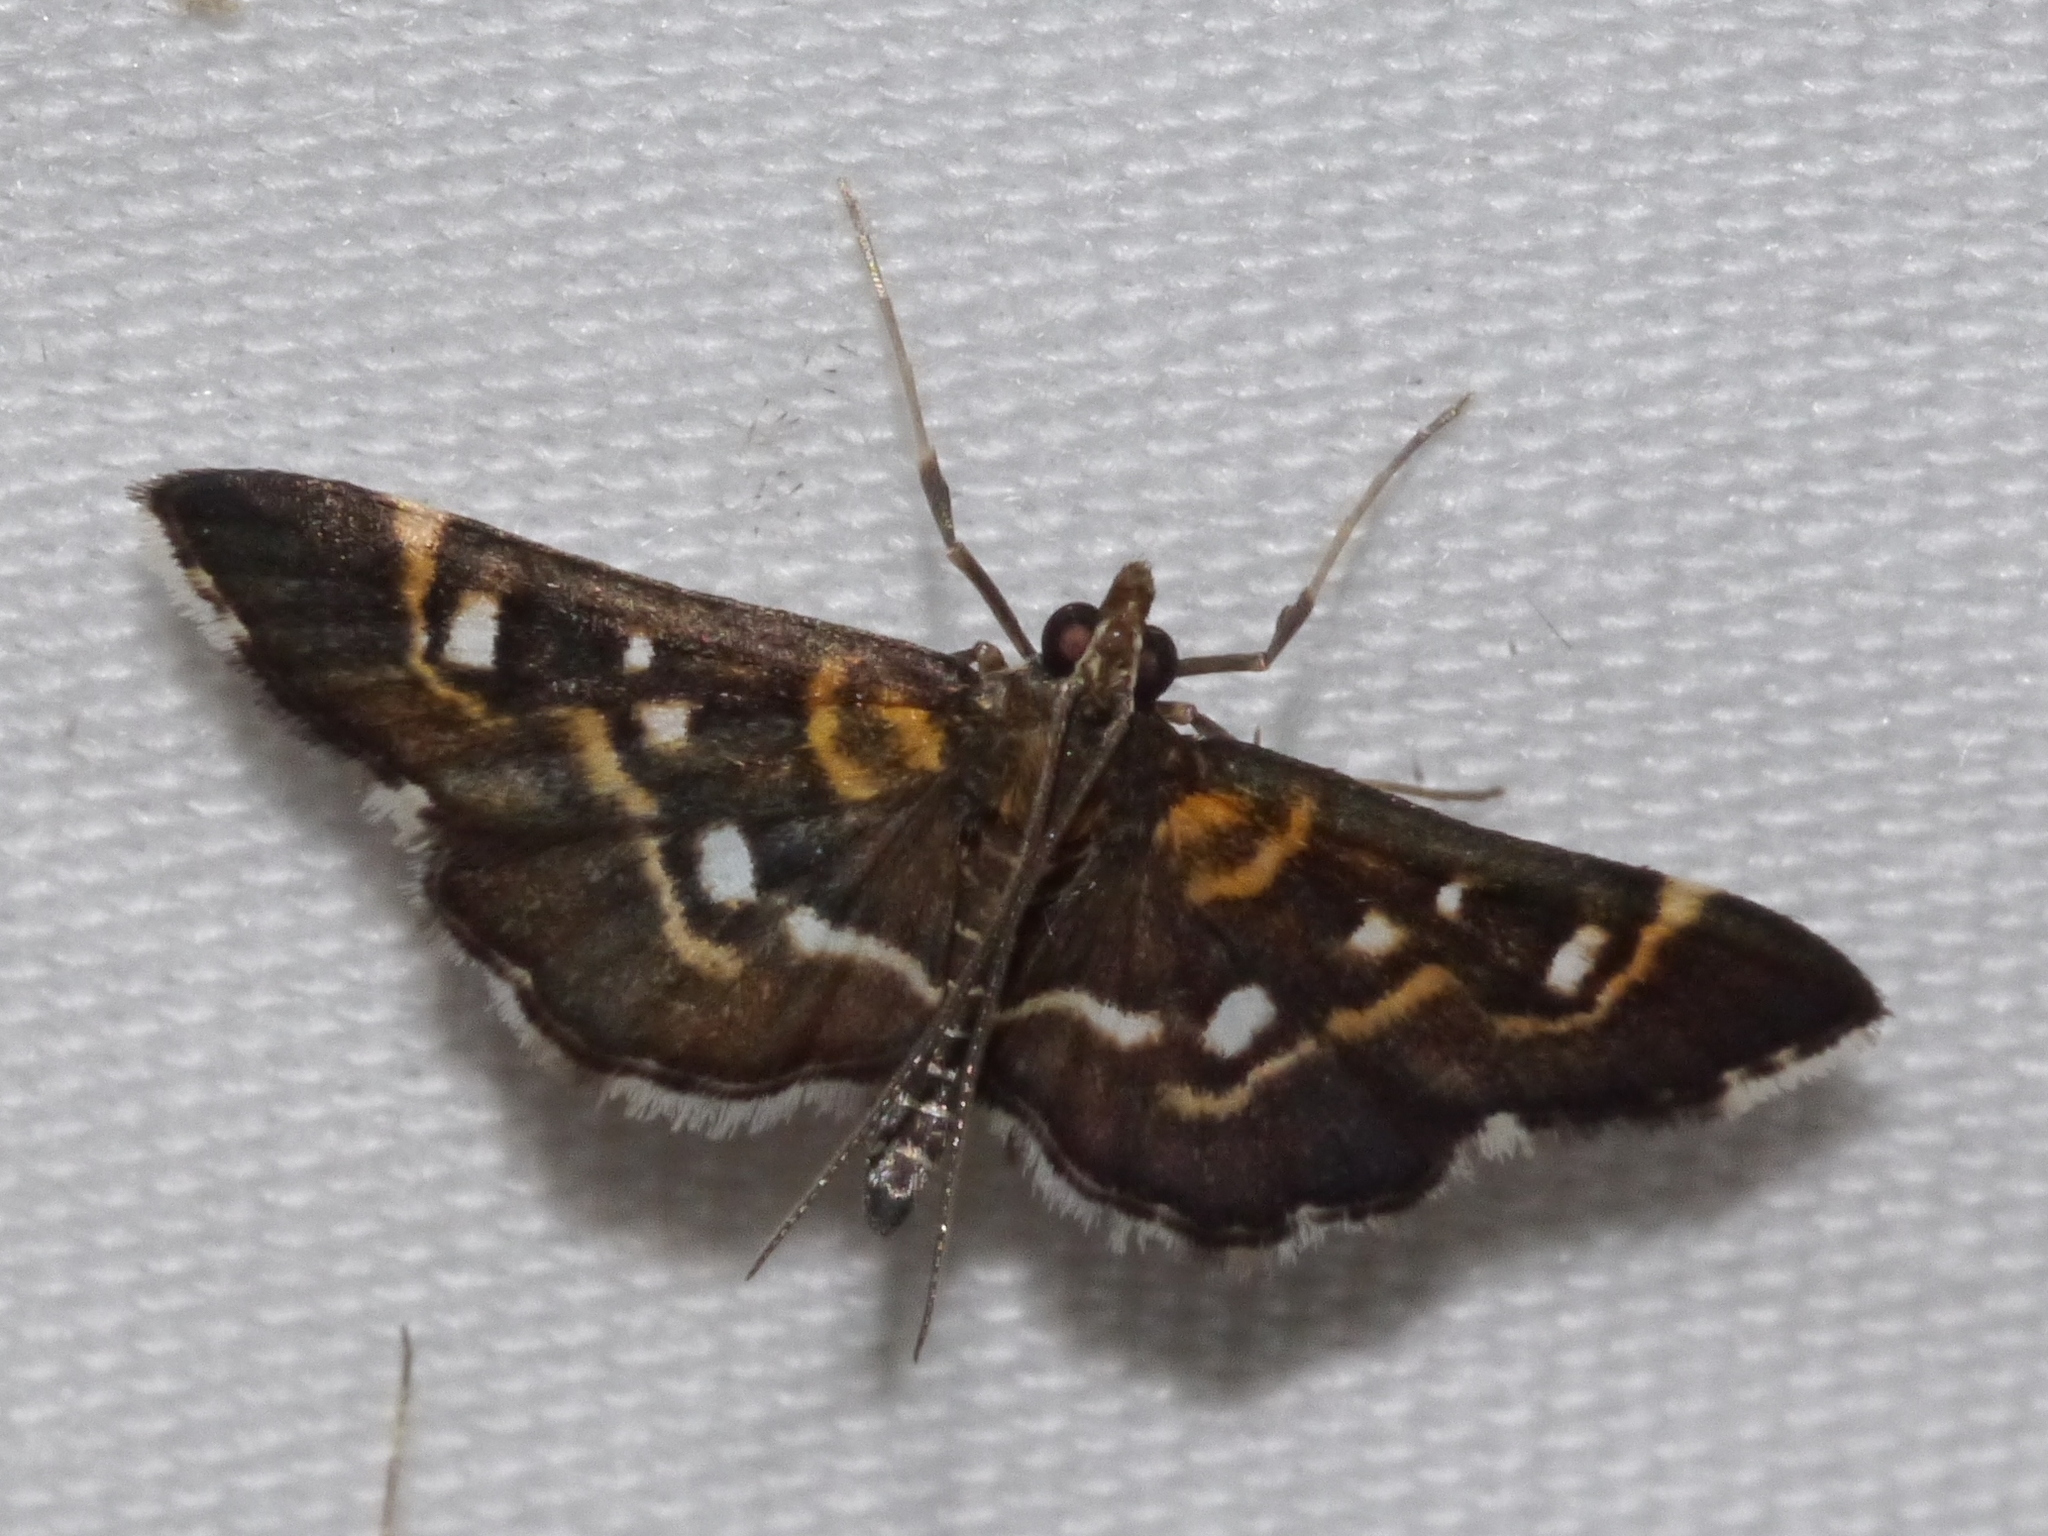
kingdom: Animalia
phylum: Arthropoda
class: Insecta
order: Lepidoptera
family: Crambidae
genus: Diathrausta
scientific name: Diathrausta harlequinalis
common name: Harlequin webworm moth
